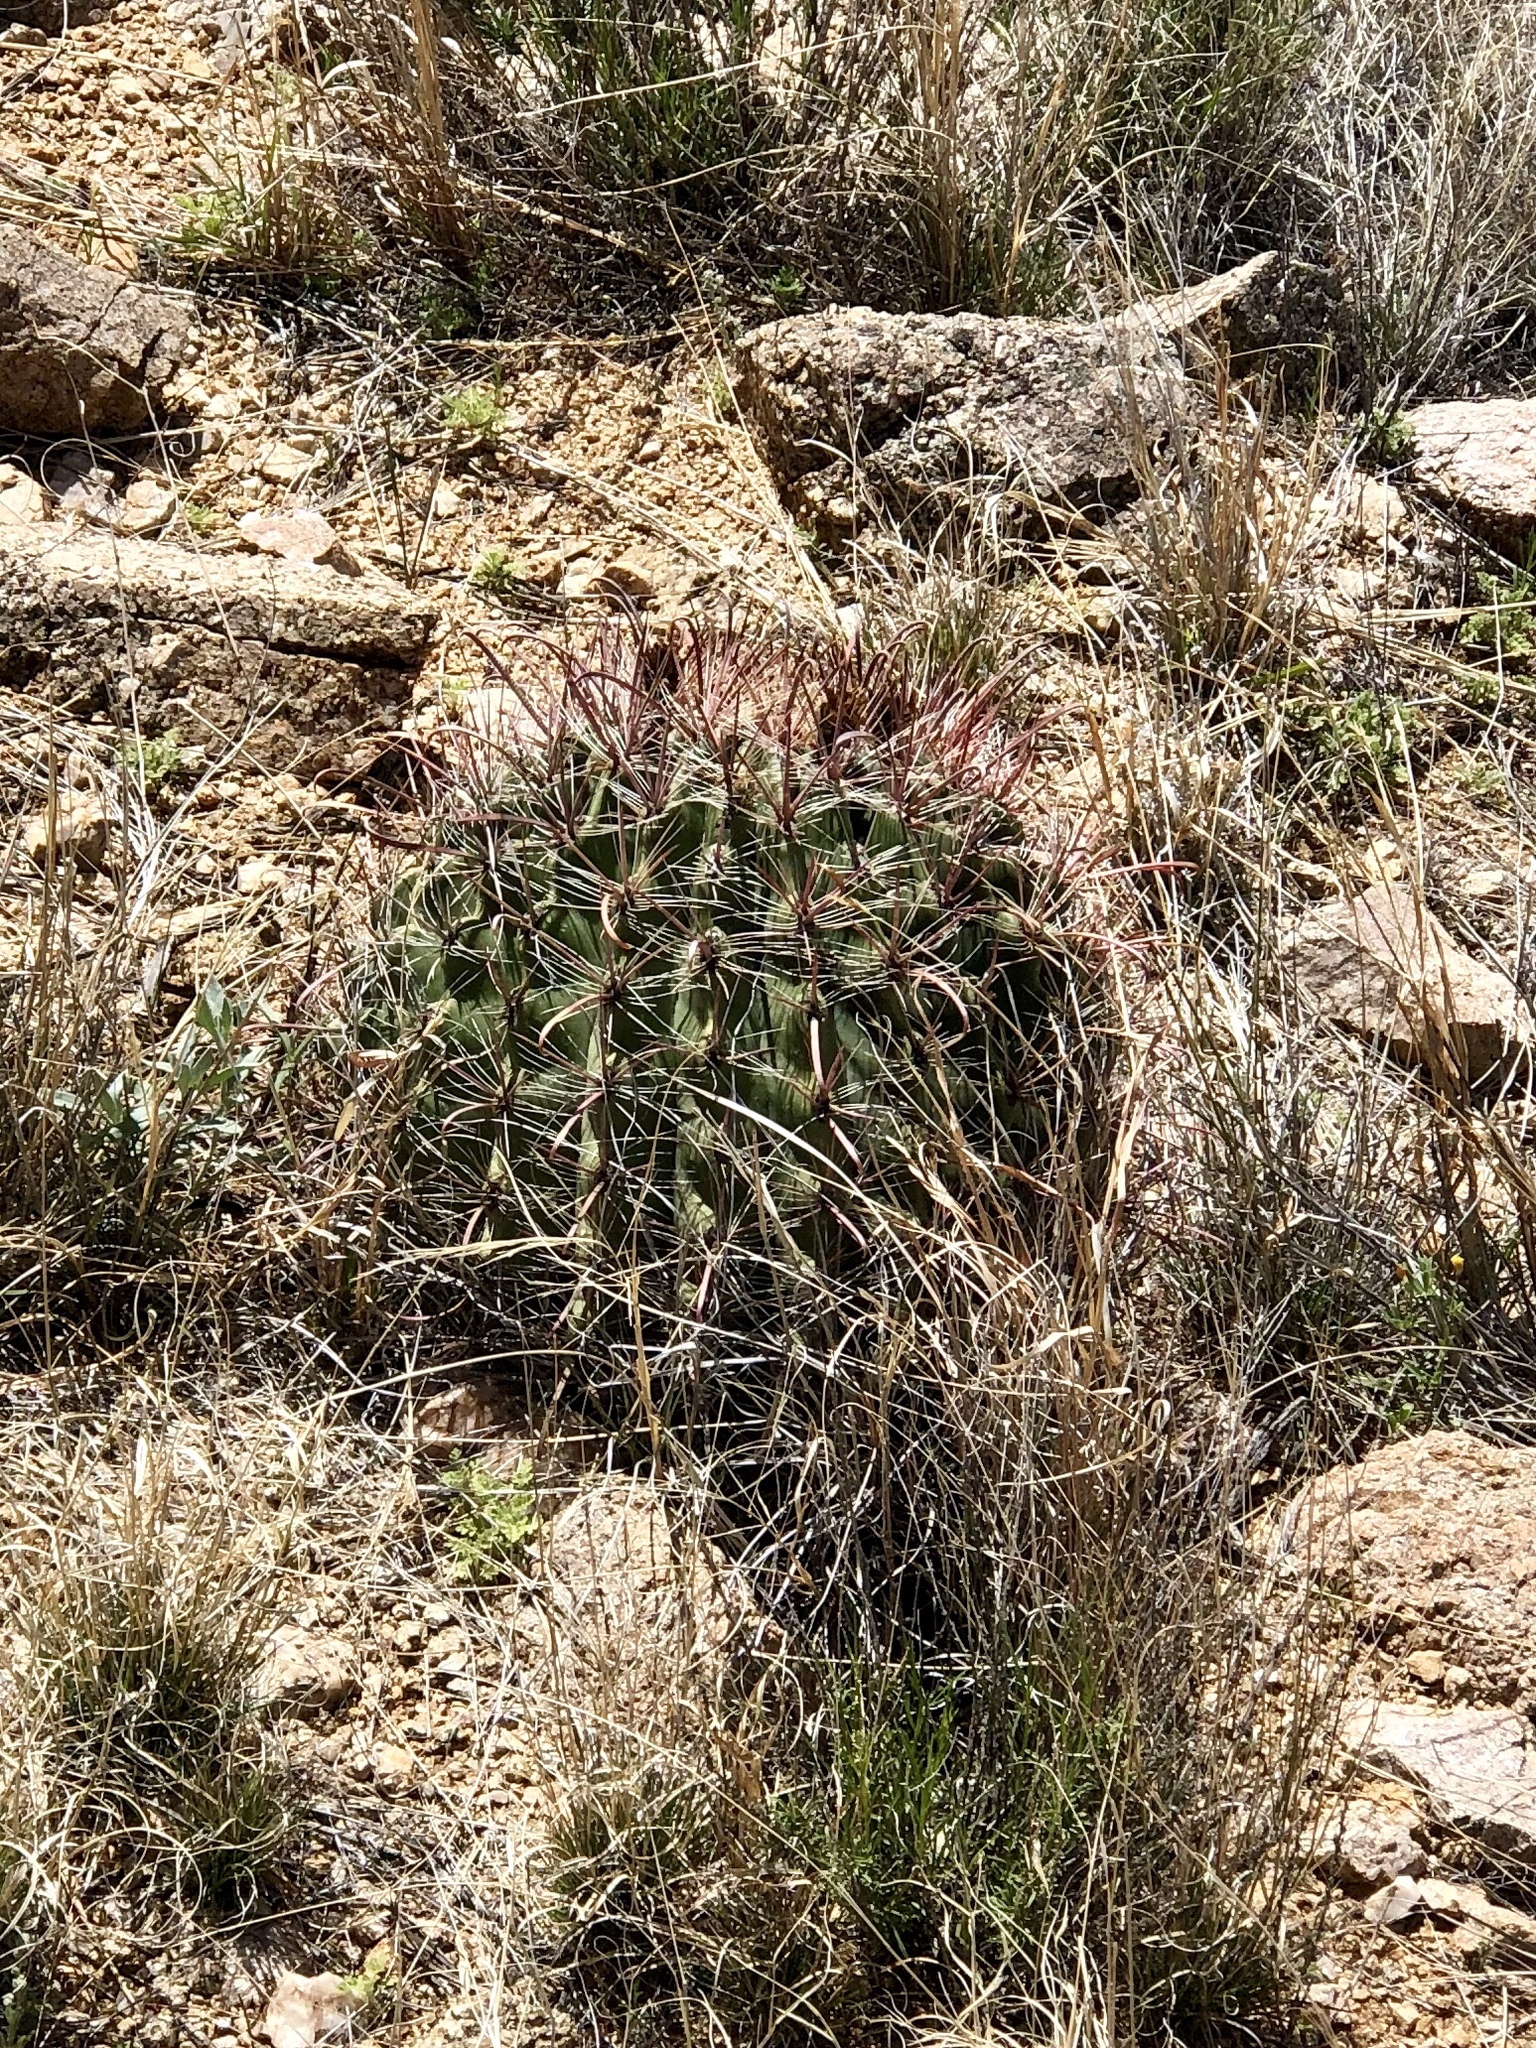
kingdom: Plantae
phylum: Tracheophyta
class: Magnoliopsida
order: Caryophyllales
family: Cactaceae
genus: Ferocactus
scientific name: Ferocactus wislizeni
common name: Candy barrel cactus
